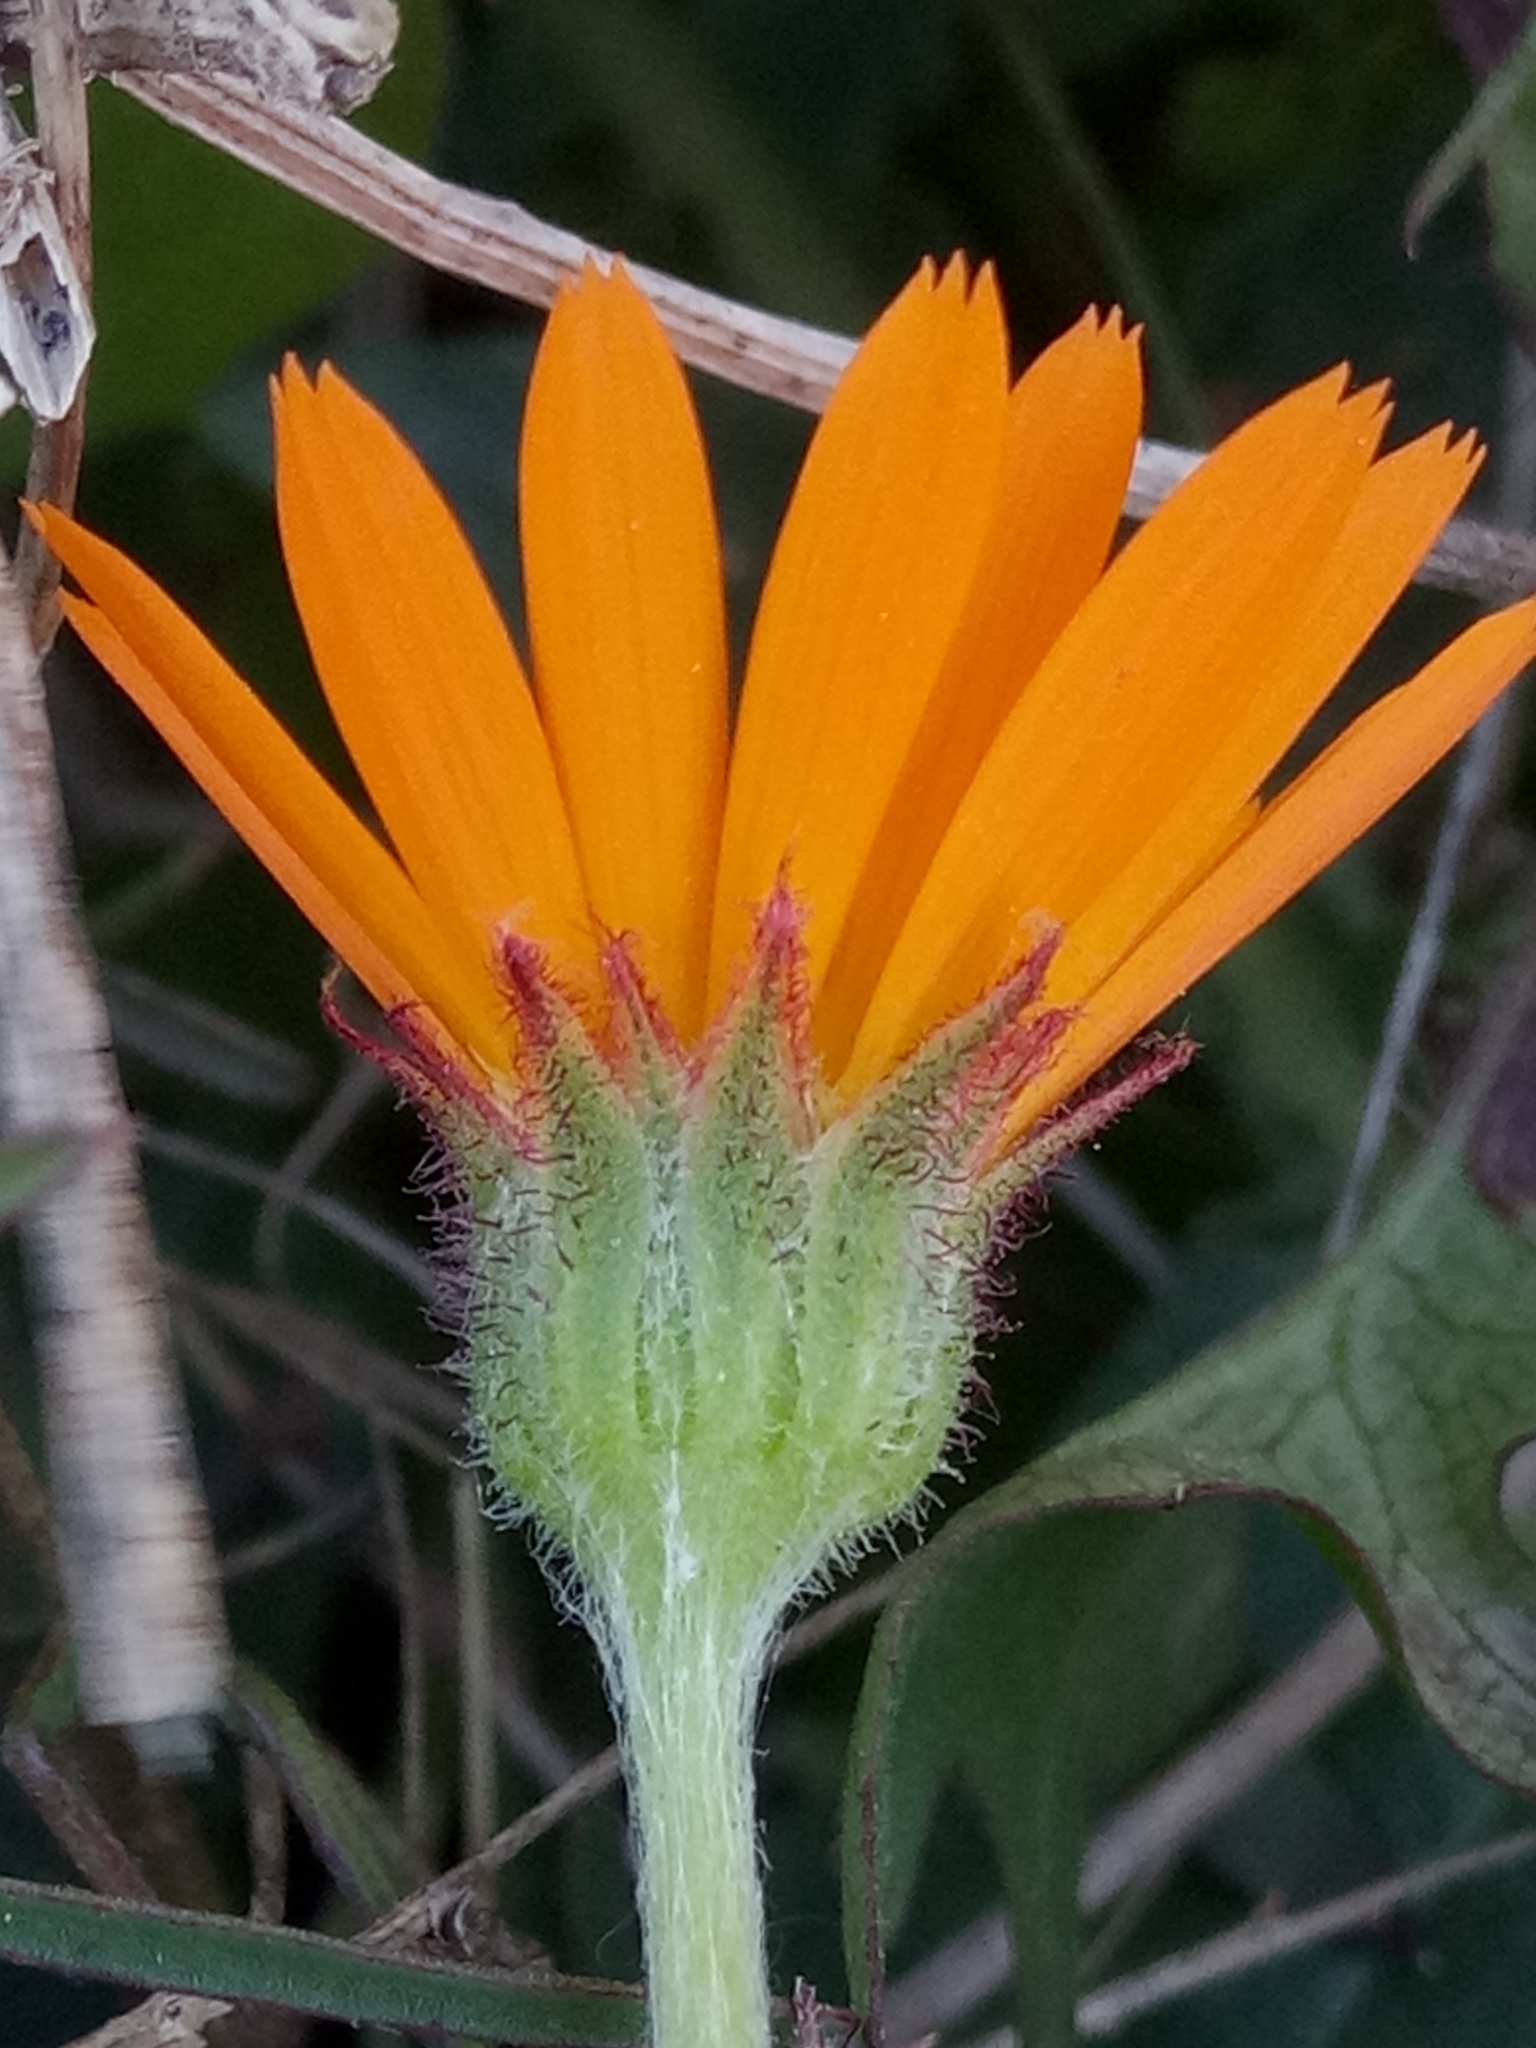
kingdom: Plantae
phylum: Tracheophyta
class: Magnoliopsida
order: Asterales
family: Asteraceae
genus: Calendula
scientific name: Calendula arvensis
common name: Field marigold
